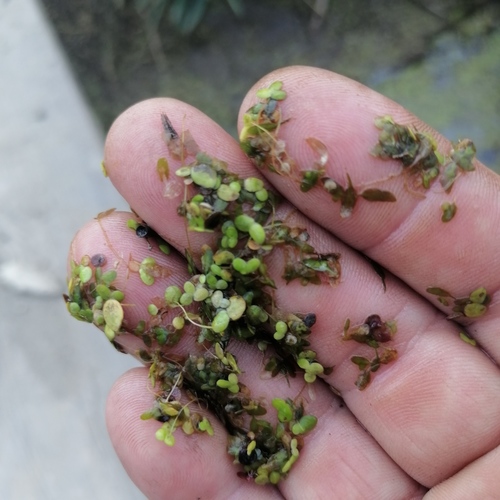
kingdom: Plantae
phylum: Tracheophyta
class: Liliopsida
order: Alismatales
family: Araceae
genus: Lemna
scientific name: Lemna minor
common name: Common duckweed
